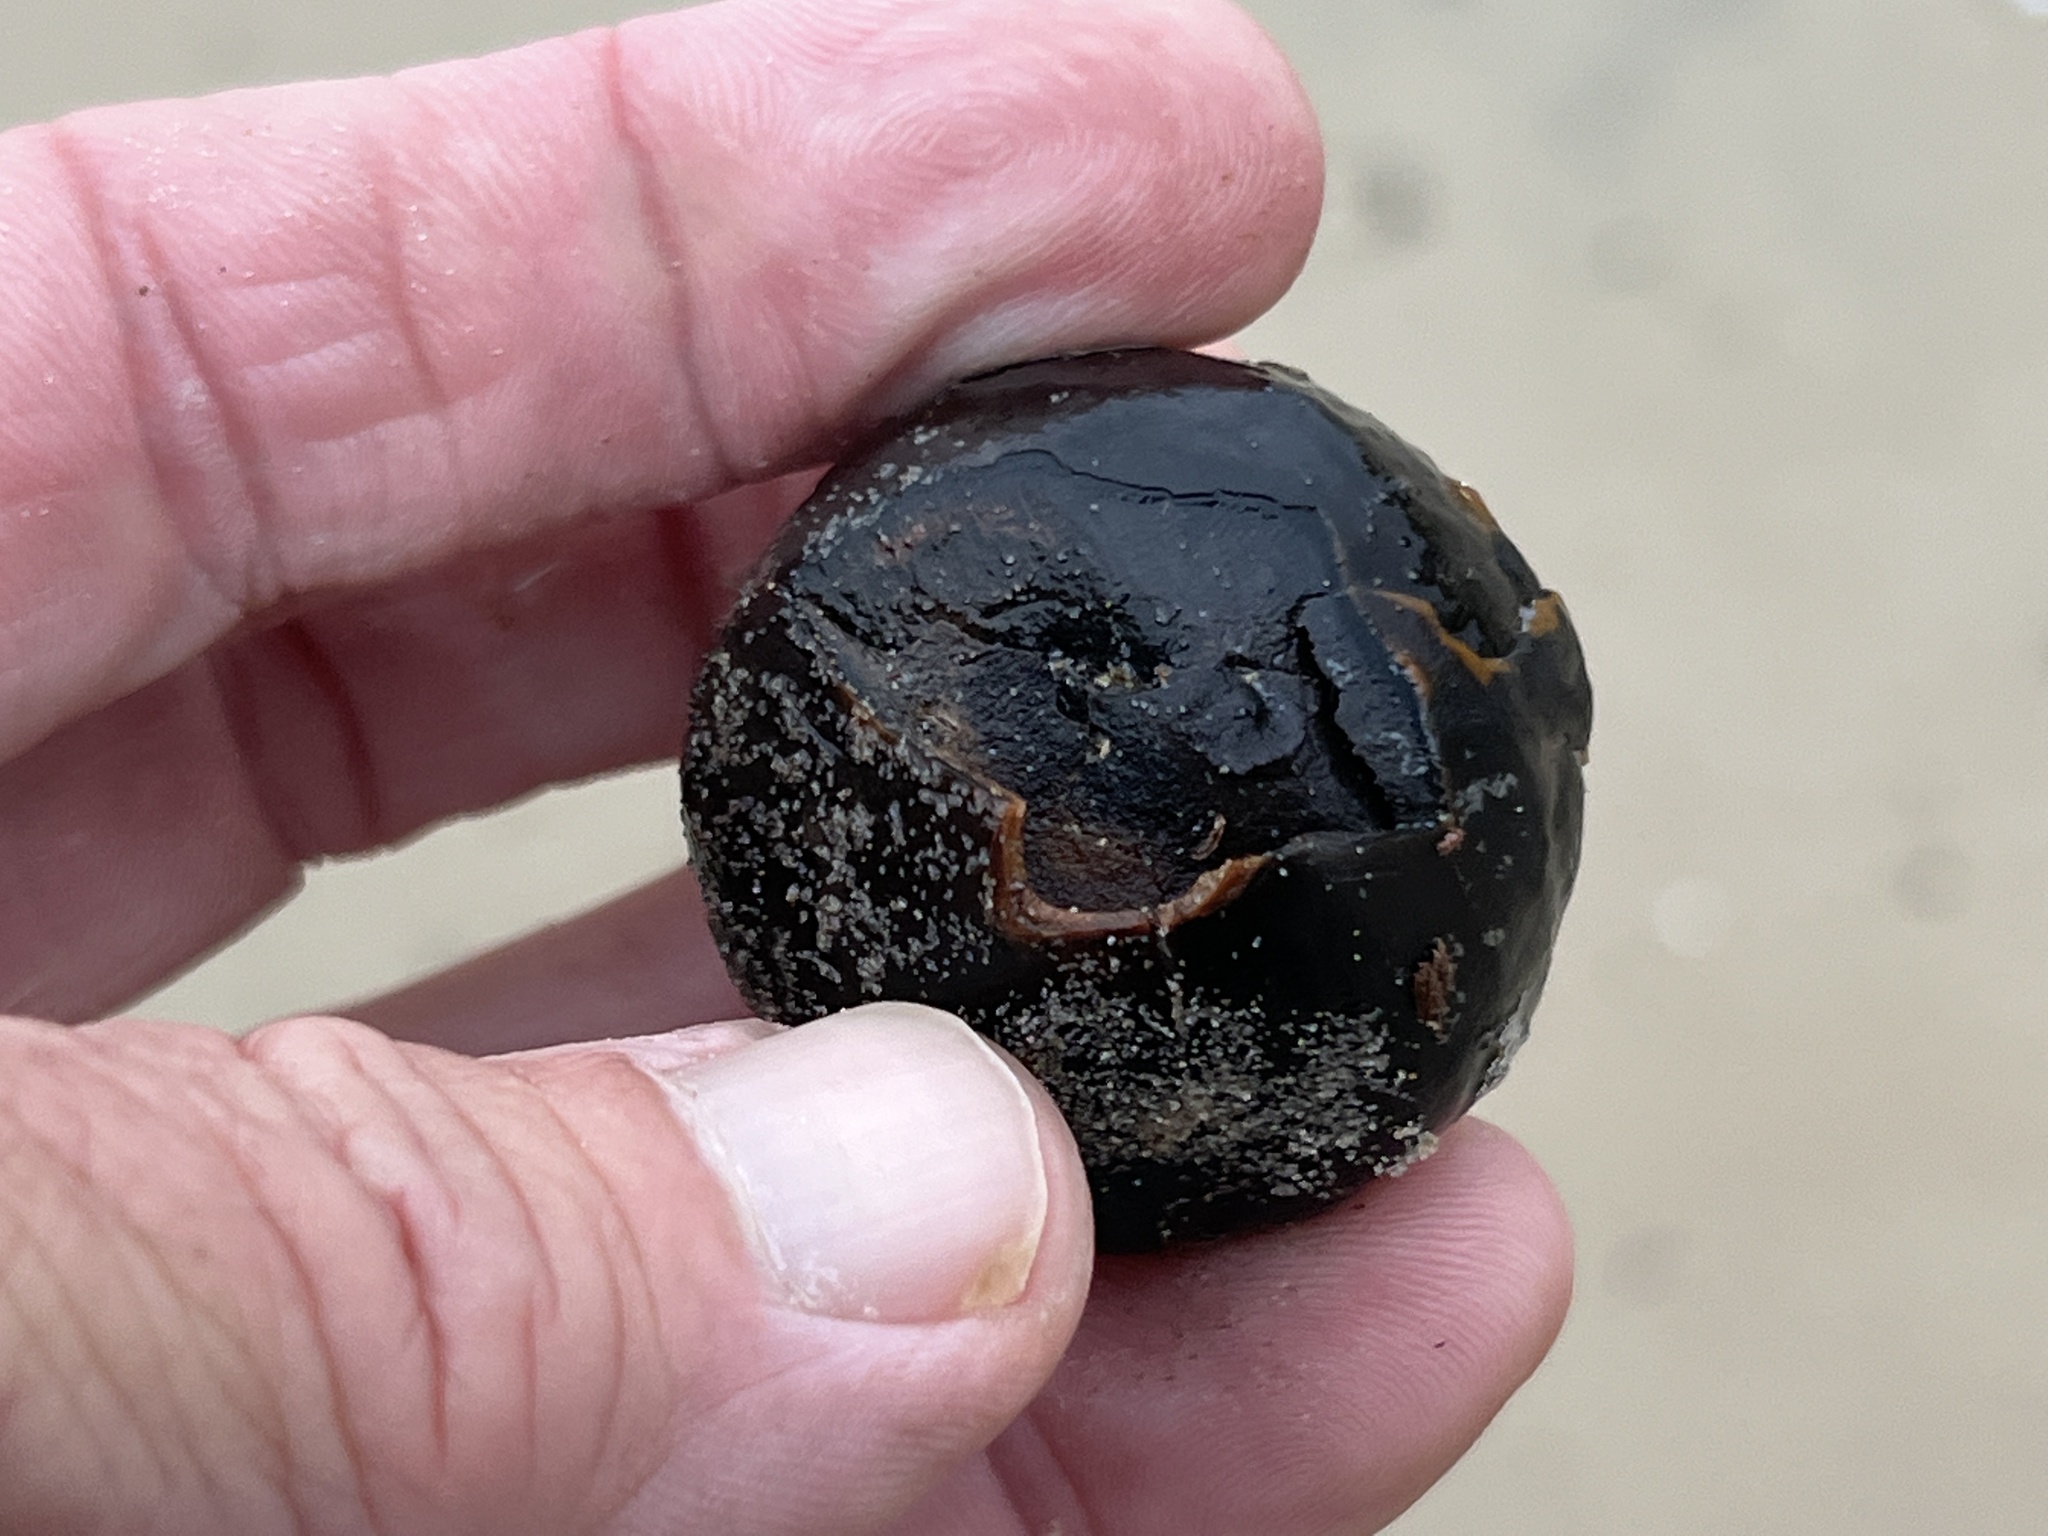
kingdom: Plantae
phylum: Tracheophyta
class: Liliopsida
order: Arecales
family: Arecaceae
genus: Manicaria
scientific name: Manicaria saccifera
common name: Sea coconut
